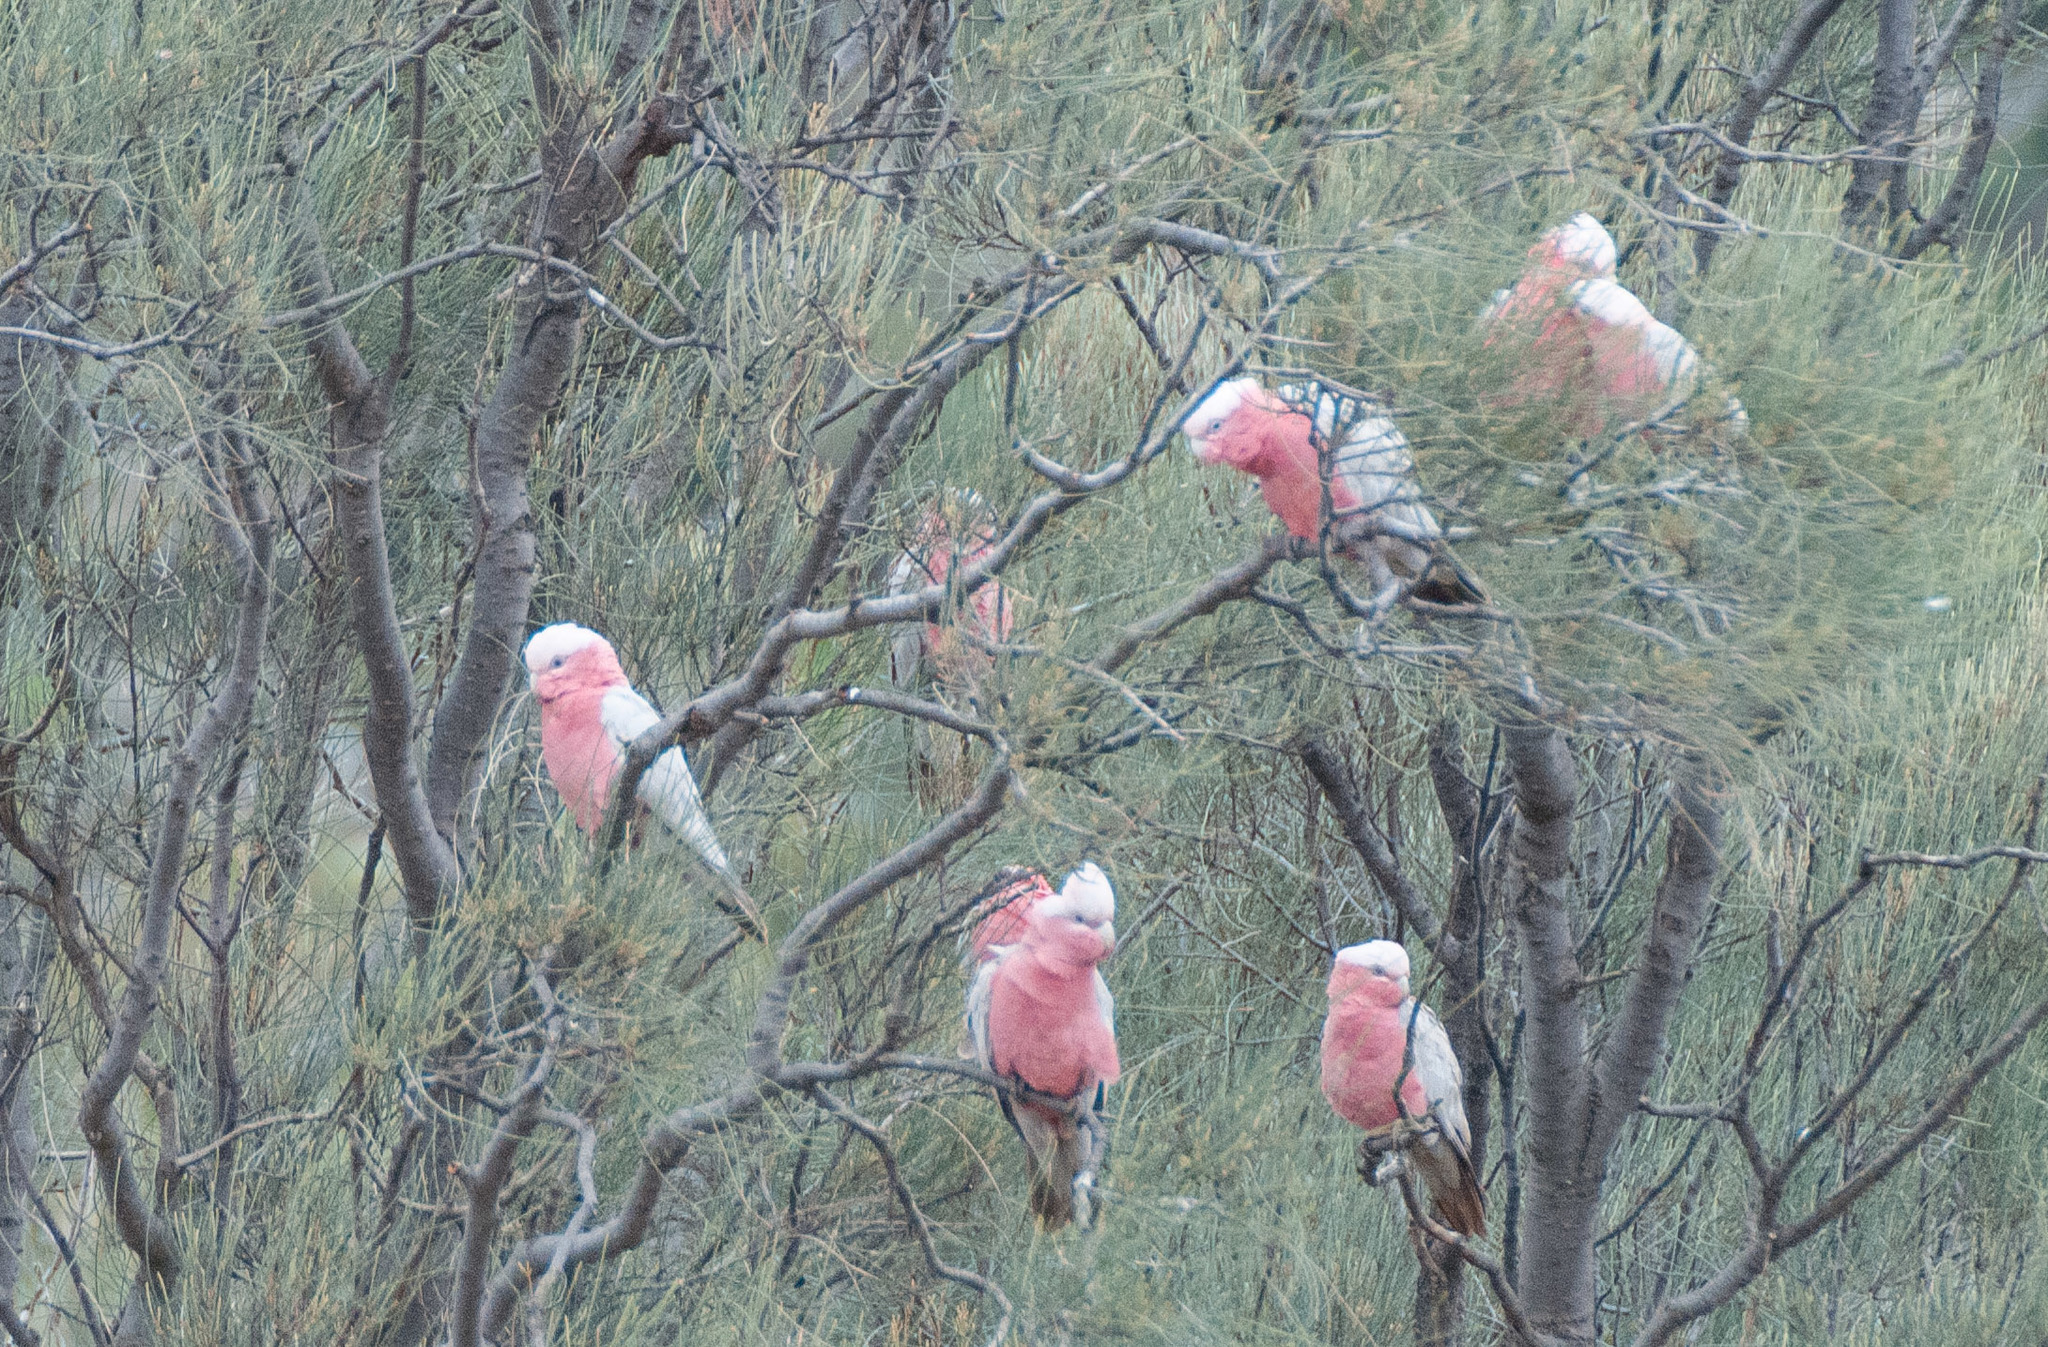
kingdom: Animalia
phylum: Chordata
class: Aves
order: Psittaciformes
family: Psittacidae
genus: Eolophus
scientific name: Eolophus roseicapilla
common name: Galah
